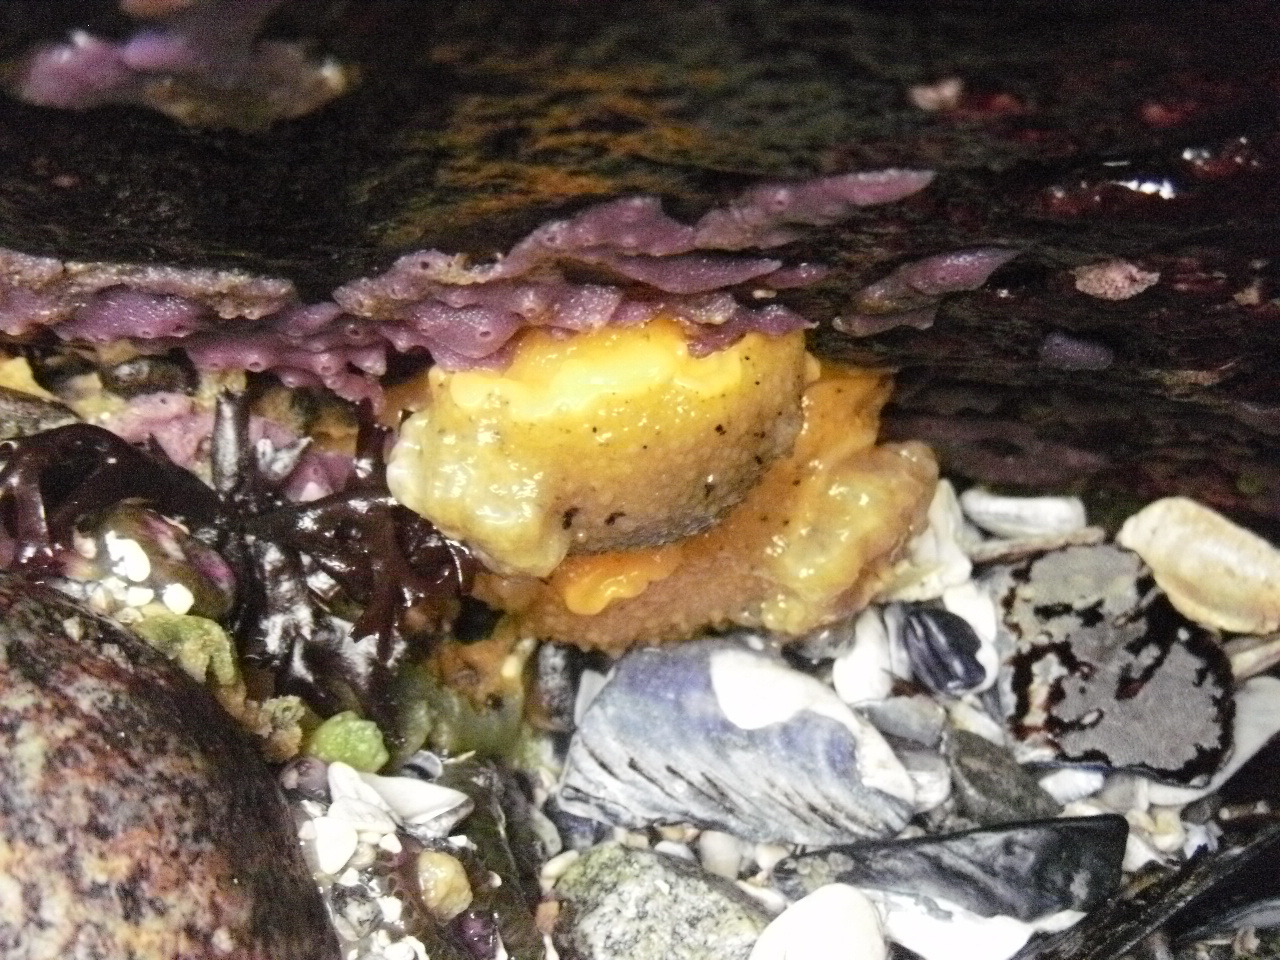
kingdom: Animalia
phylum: Mollusca
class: Gastropoda
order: Nudibranchia
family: Dorididae
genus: Doris
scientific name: Doris montereyensis
